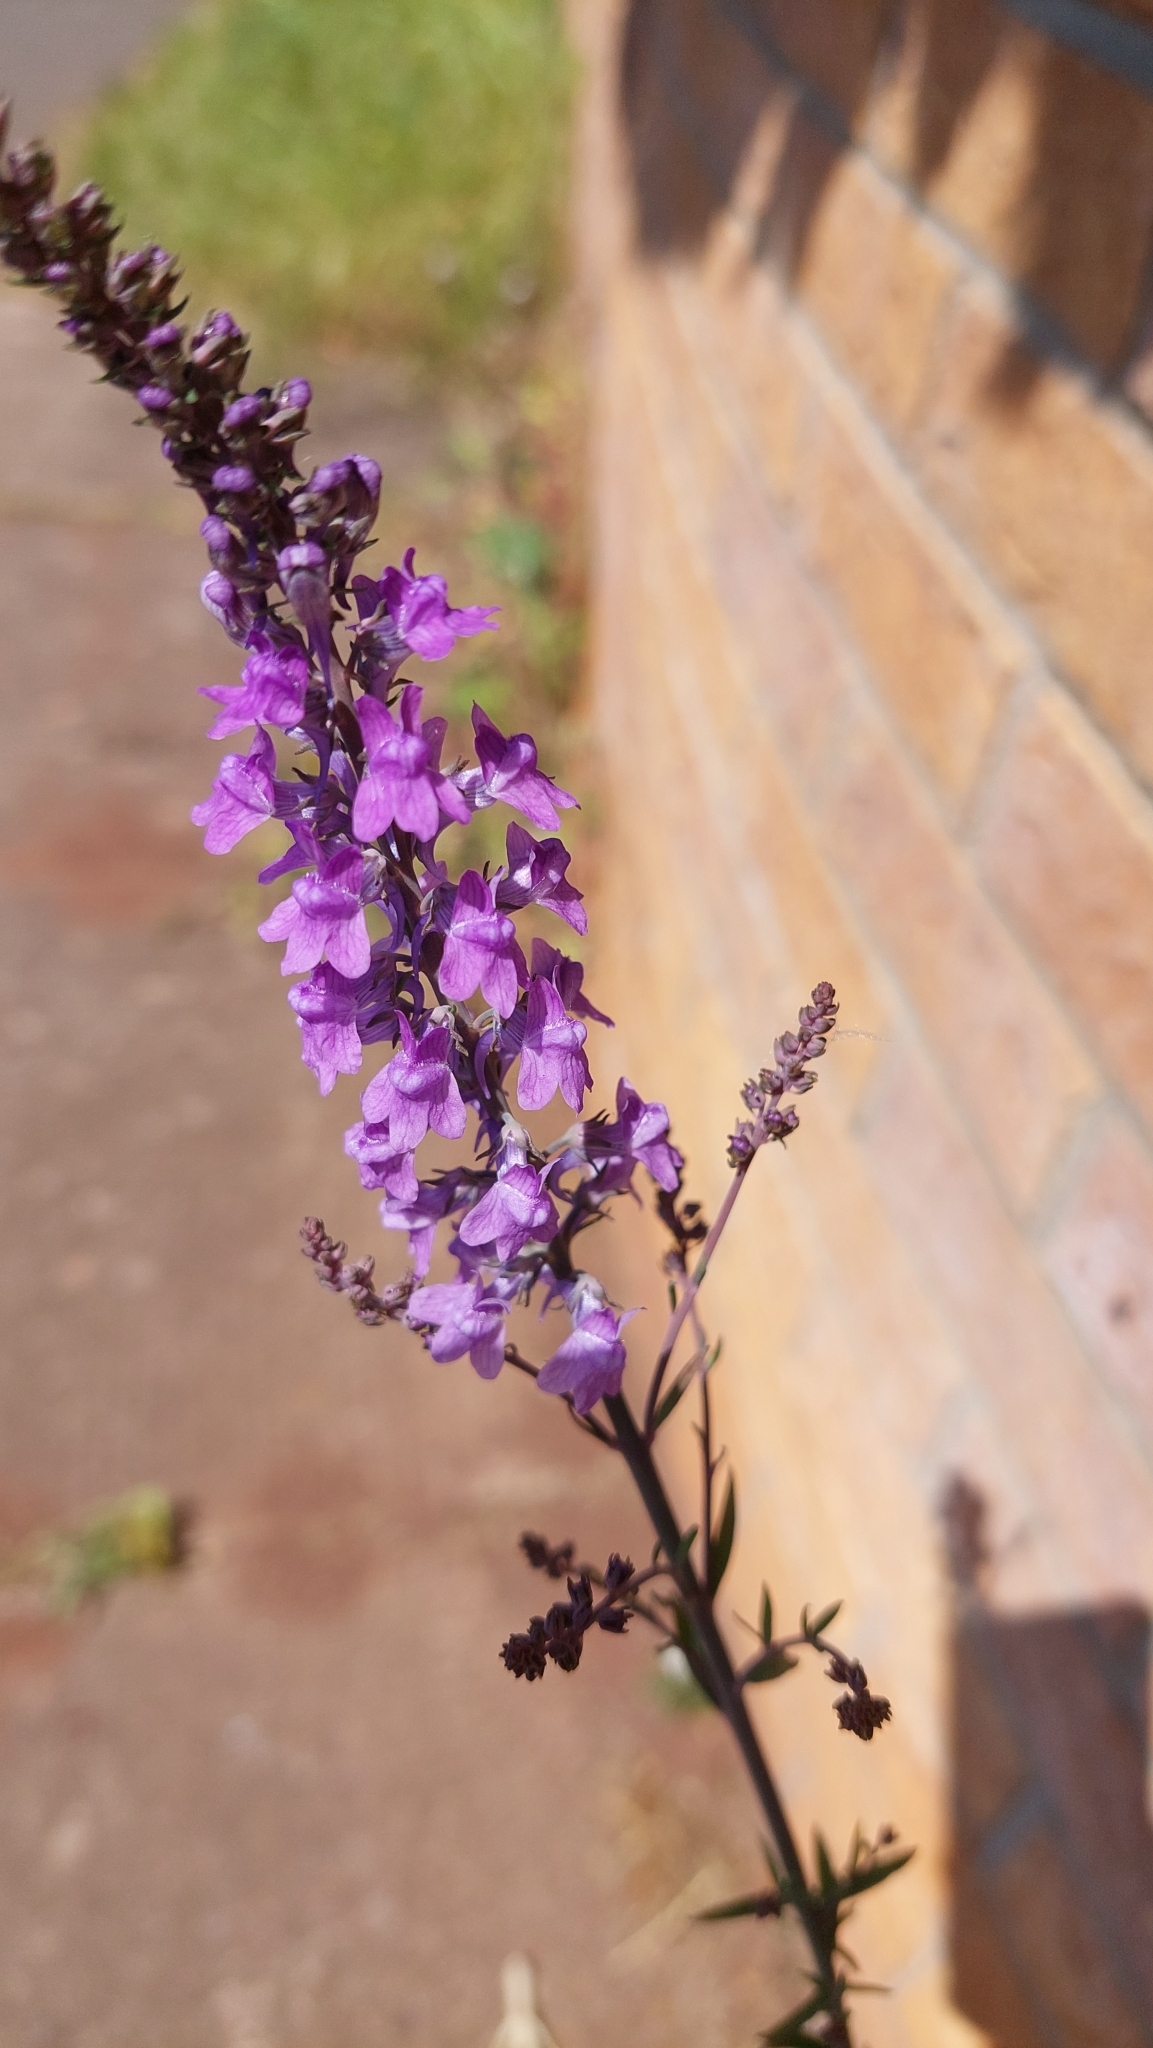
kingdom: Plantae
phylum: Tracheophyta
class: Magnoliopsida
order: Lamiales
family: Plantaginaceae
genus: Linaria
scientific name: Linaria purpurea
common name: Purple toadflax
